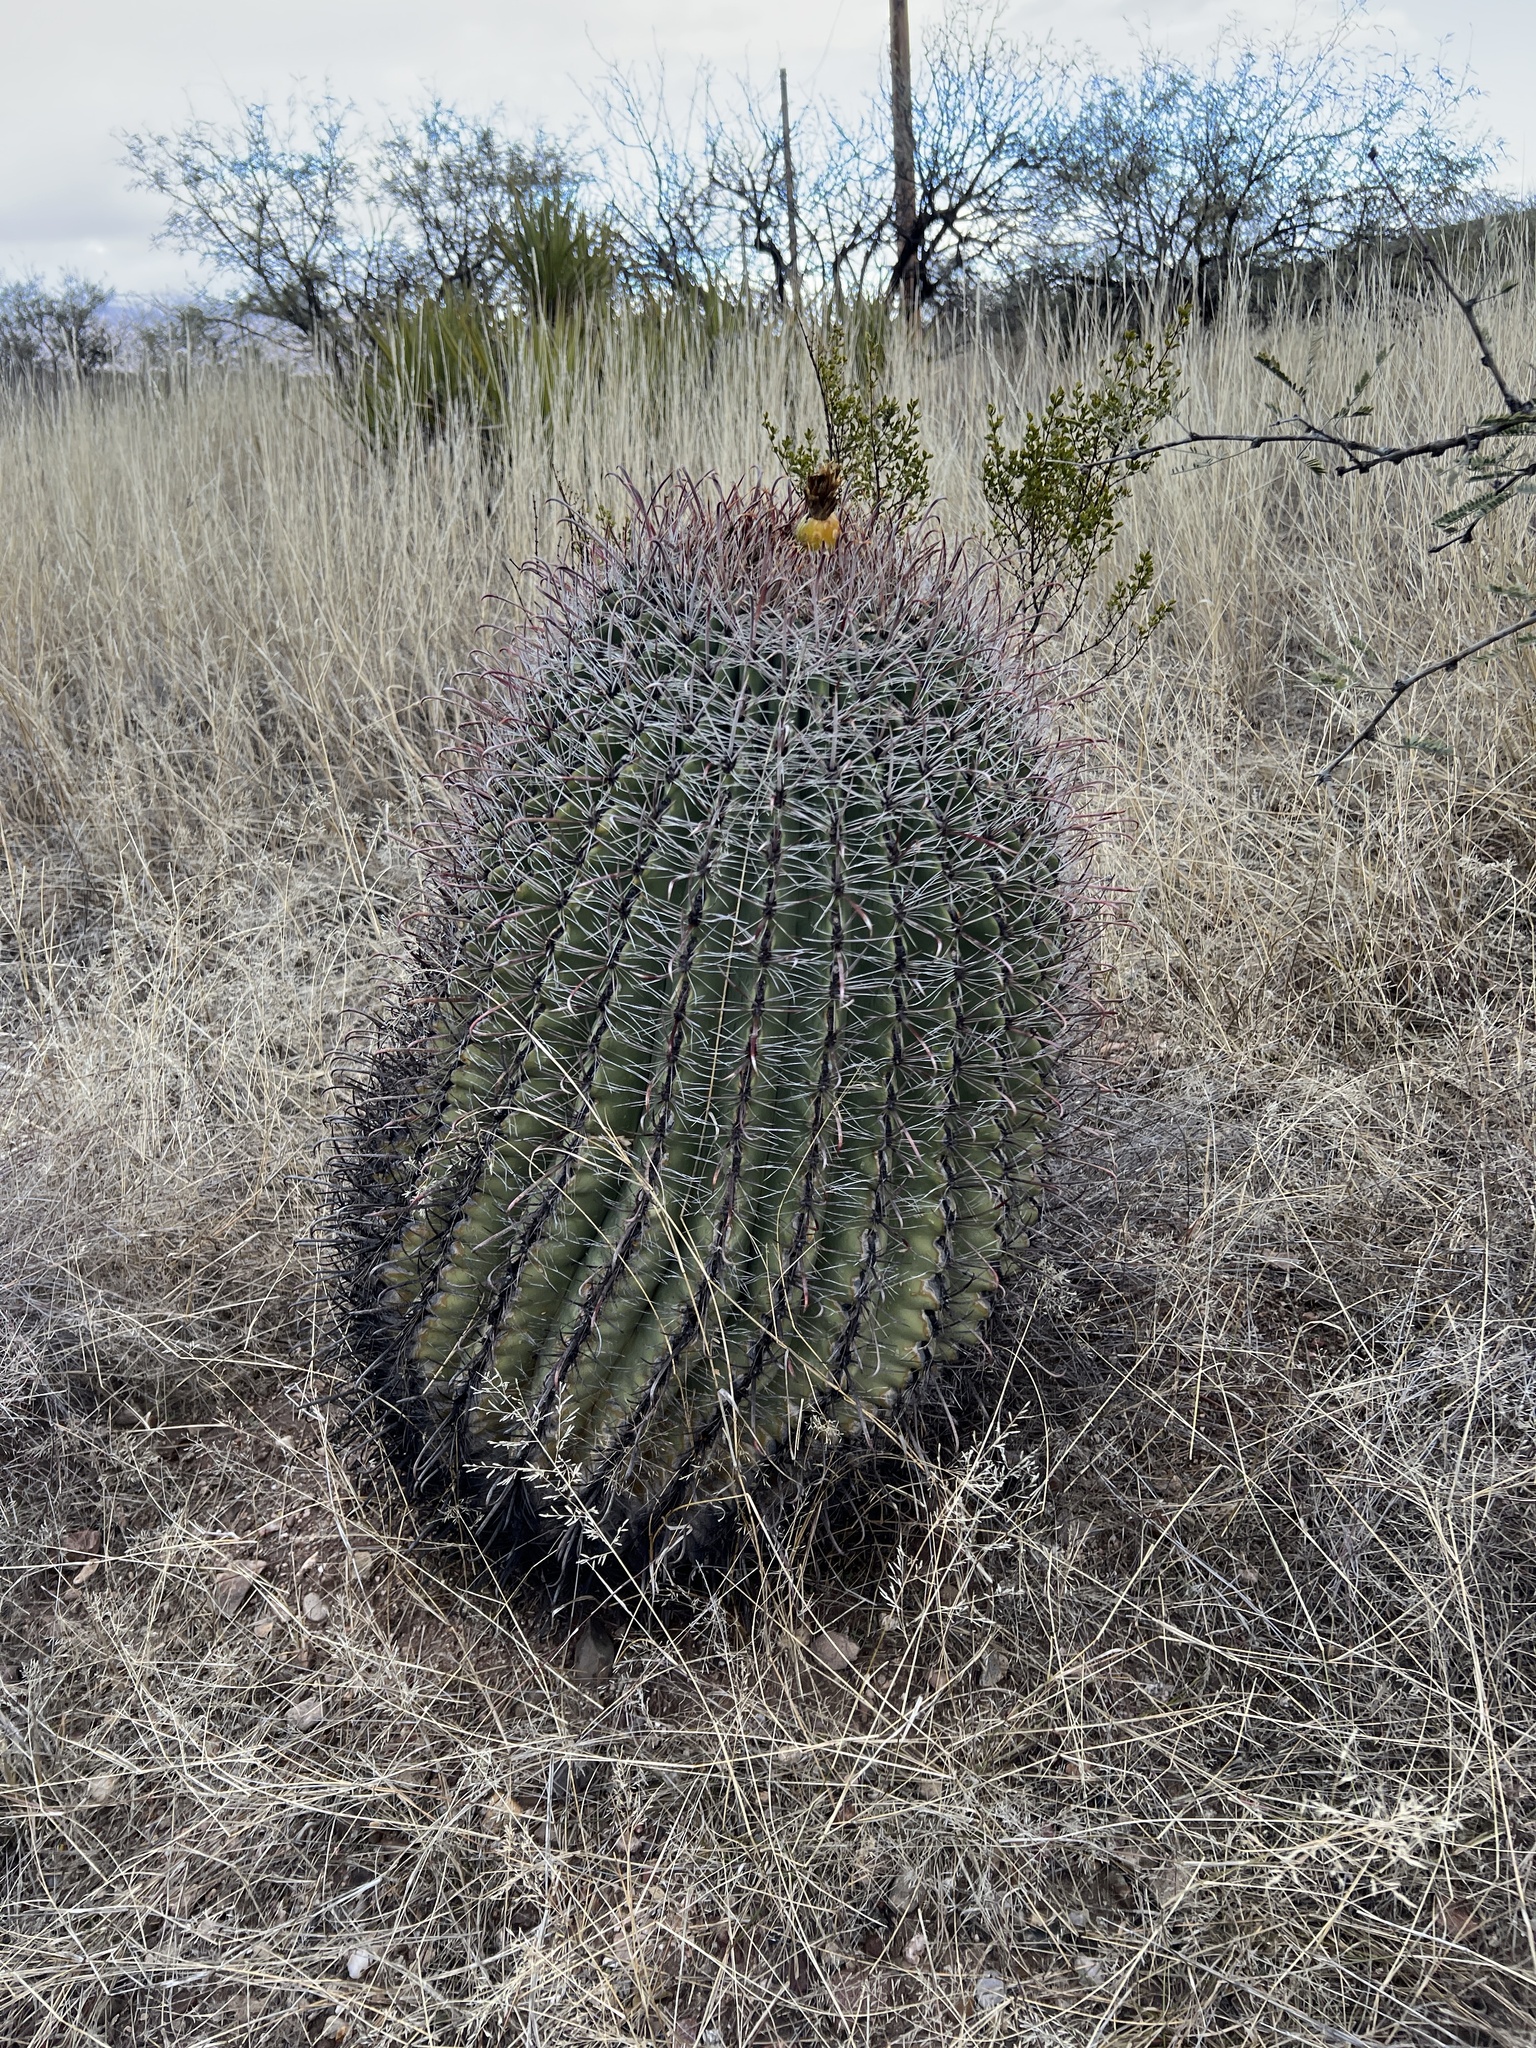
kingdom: Plantae
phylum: Tracheophyta
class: Magnoliopsida
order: Caryophyllales
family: Cactaceae
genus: Ferocactus
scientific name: Ferocactus wislizeni
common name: Candy barrel cactus
